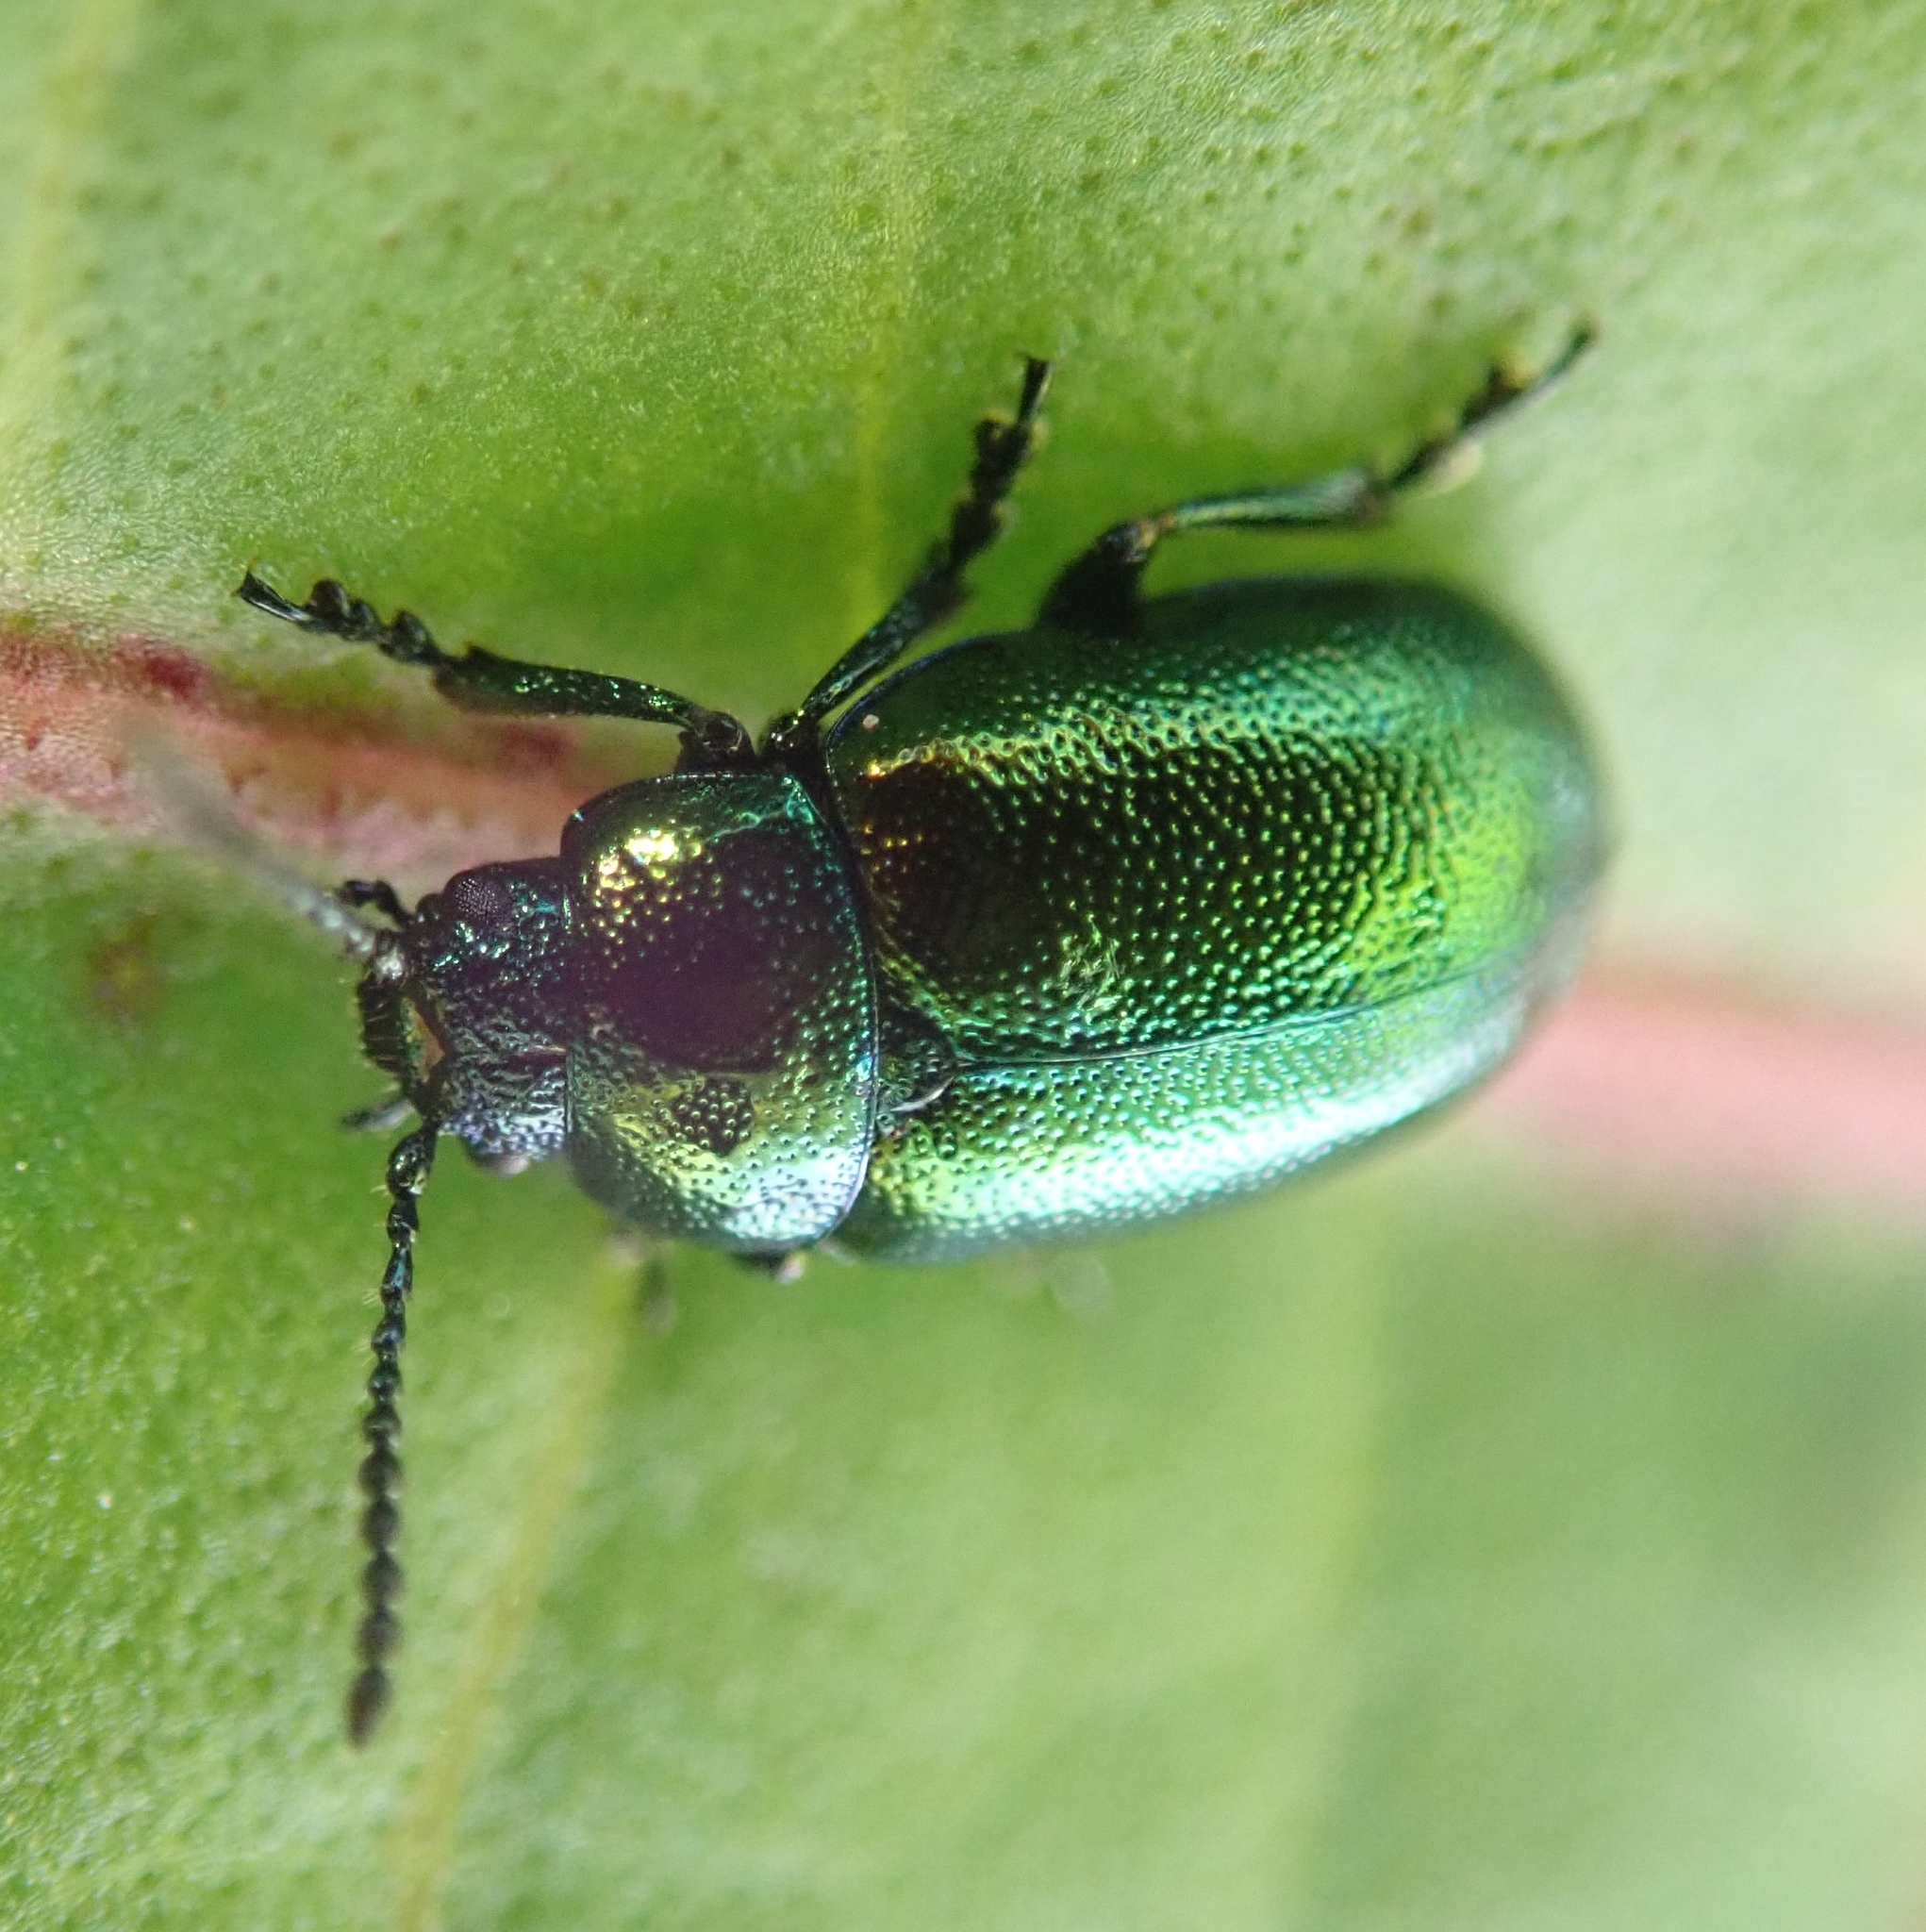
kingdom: Animalia
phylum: Arthropoda
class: Insecta
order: Coleoptera
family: Chrysomelidae
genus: Gastrophysa
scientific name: Gastrophysa viridula
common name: Green dock beetle
